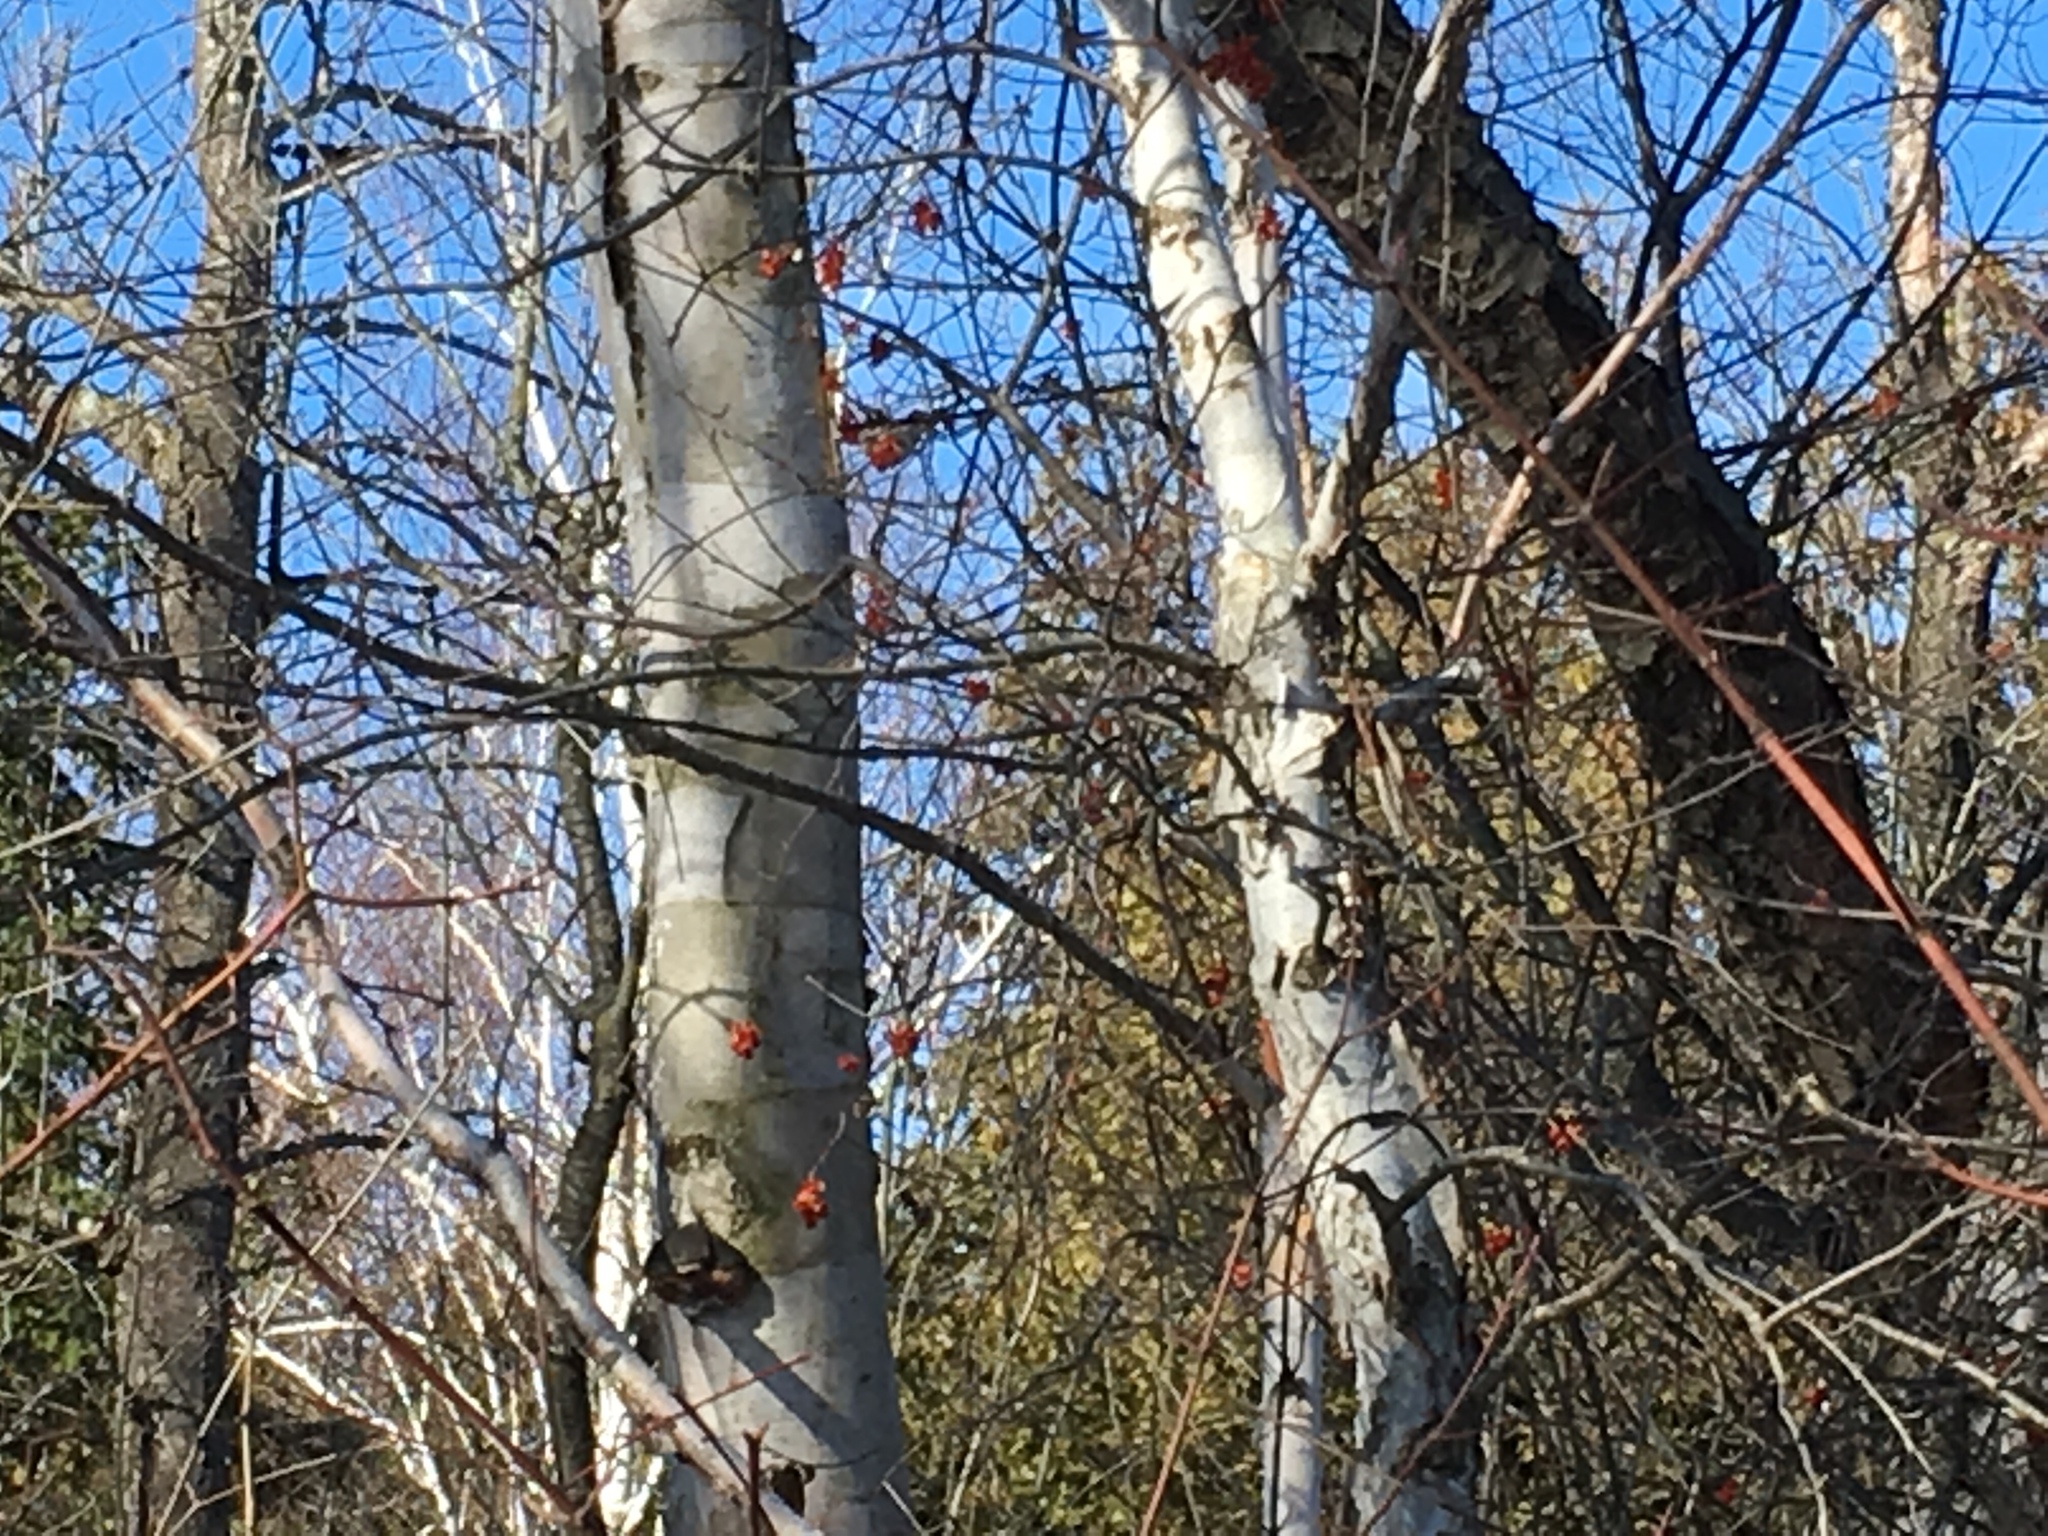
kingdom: Plantae
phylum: Tracheophyta
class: Magnoliopsida
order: Celastrales
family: Celastraceae
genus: Celastrus
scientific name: Celastrus scandens
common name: American bittersweet
